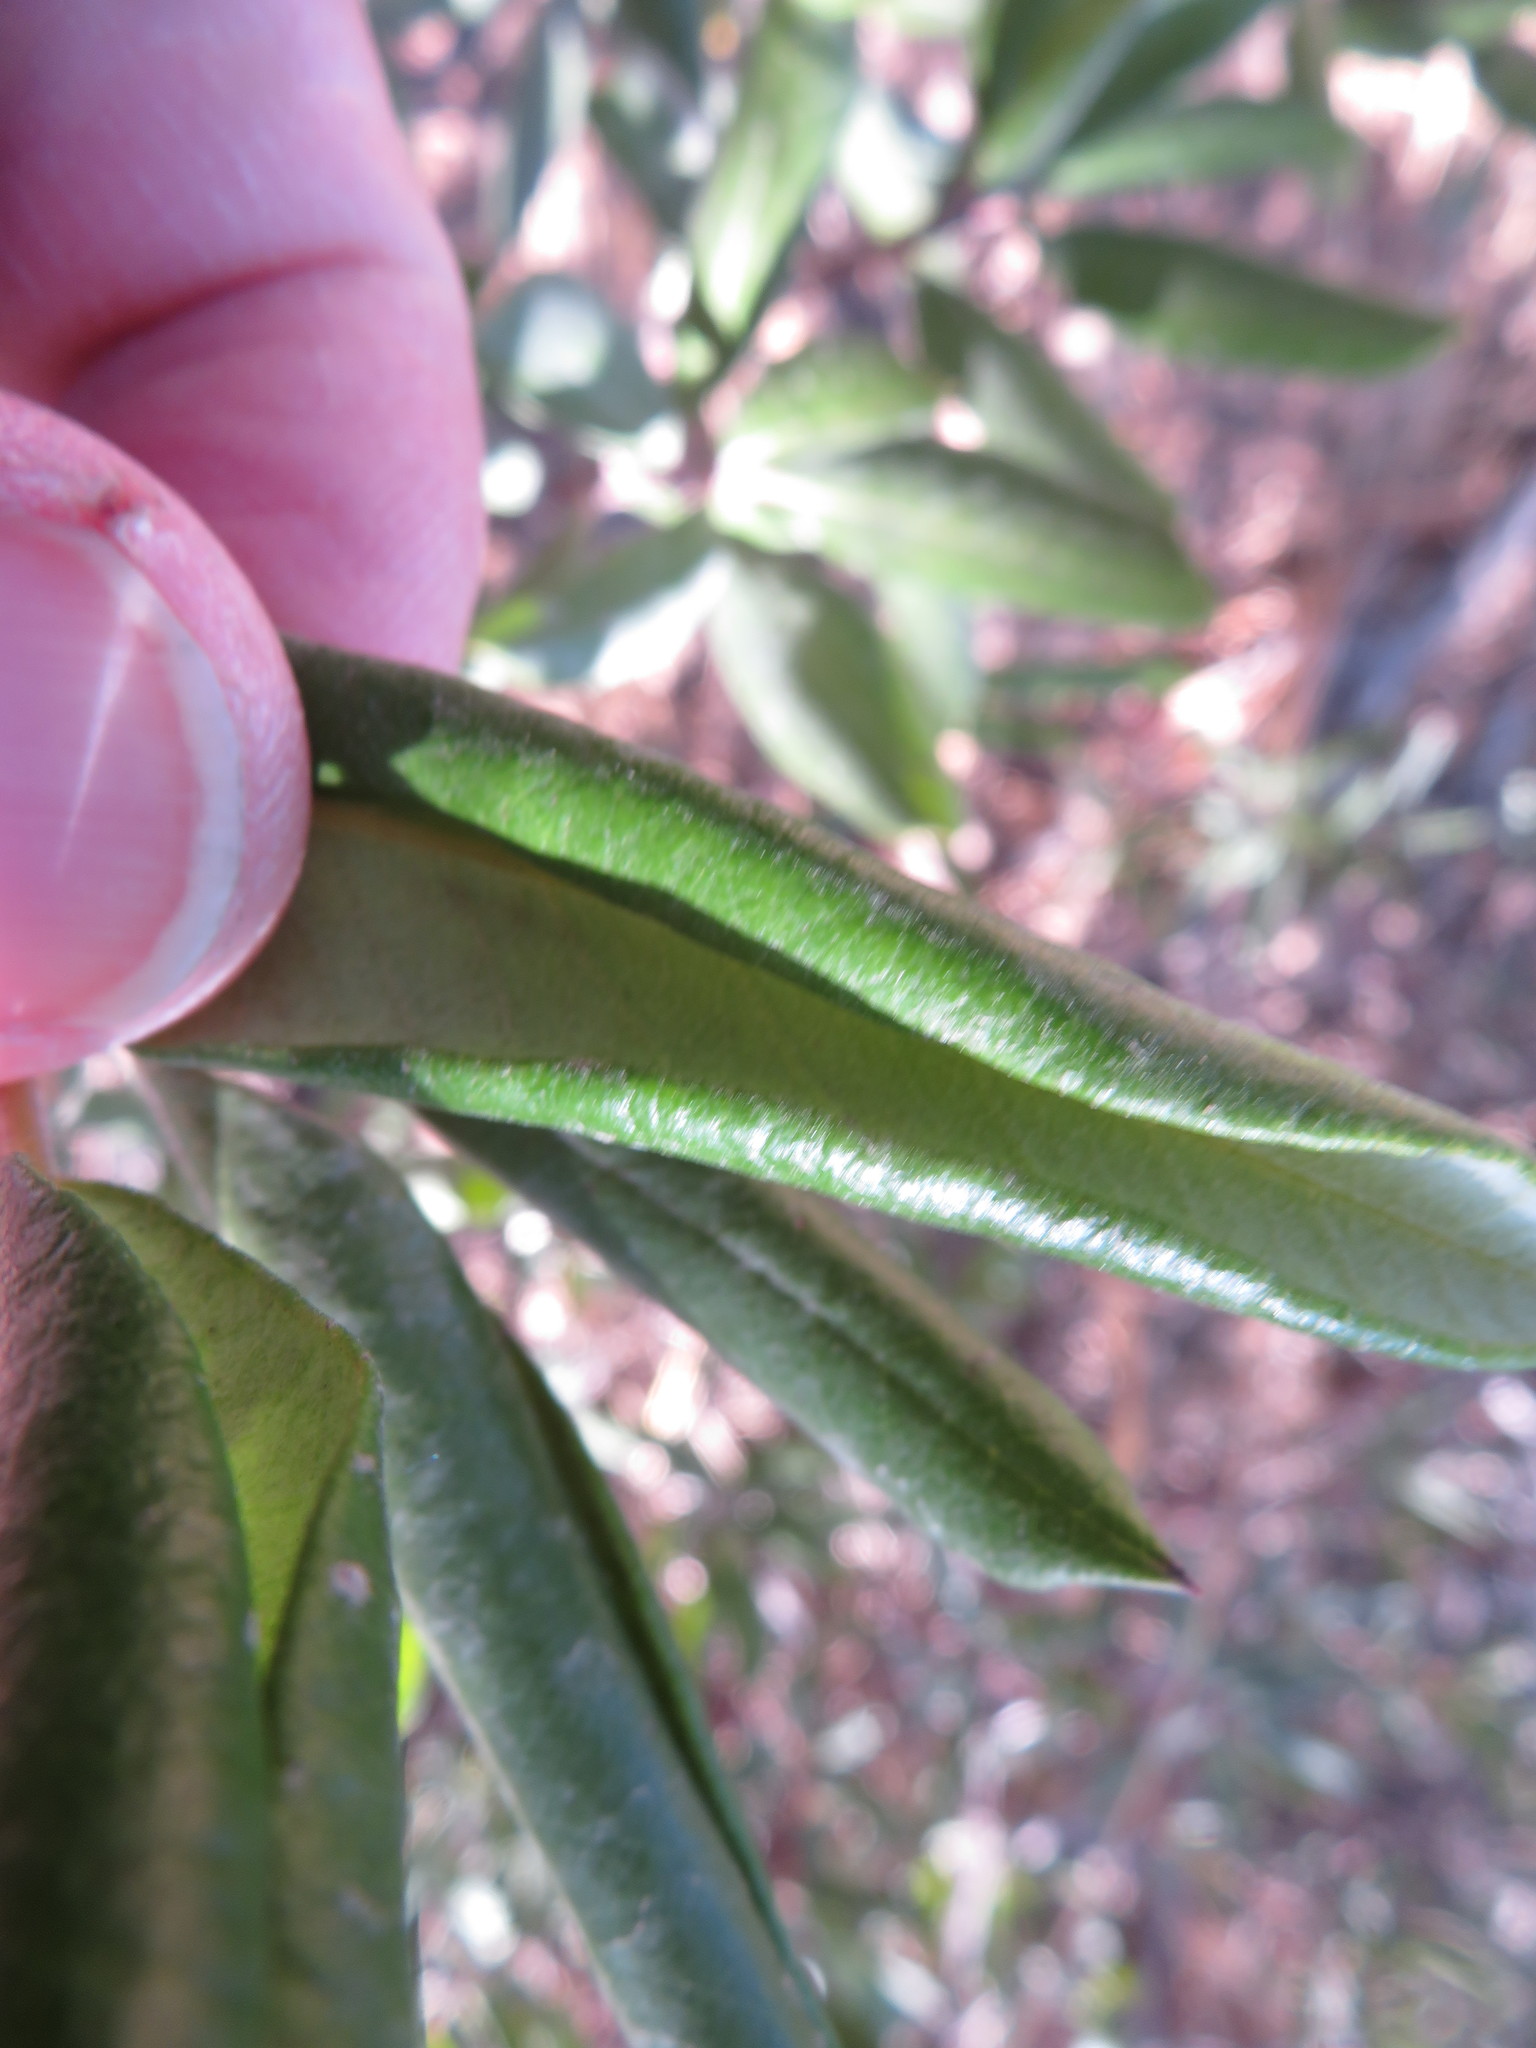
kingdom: Plantae
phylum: Tracheophyta
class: Magnoliopsida
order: Ericales
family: Ericaceae
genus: Comarostaphylis
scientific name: Comarostaphylis diversifolia
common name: Summer-holly
